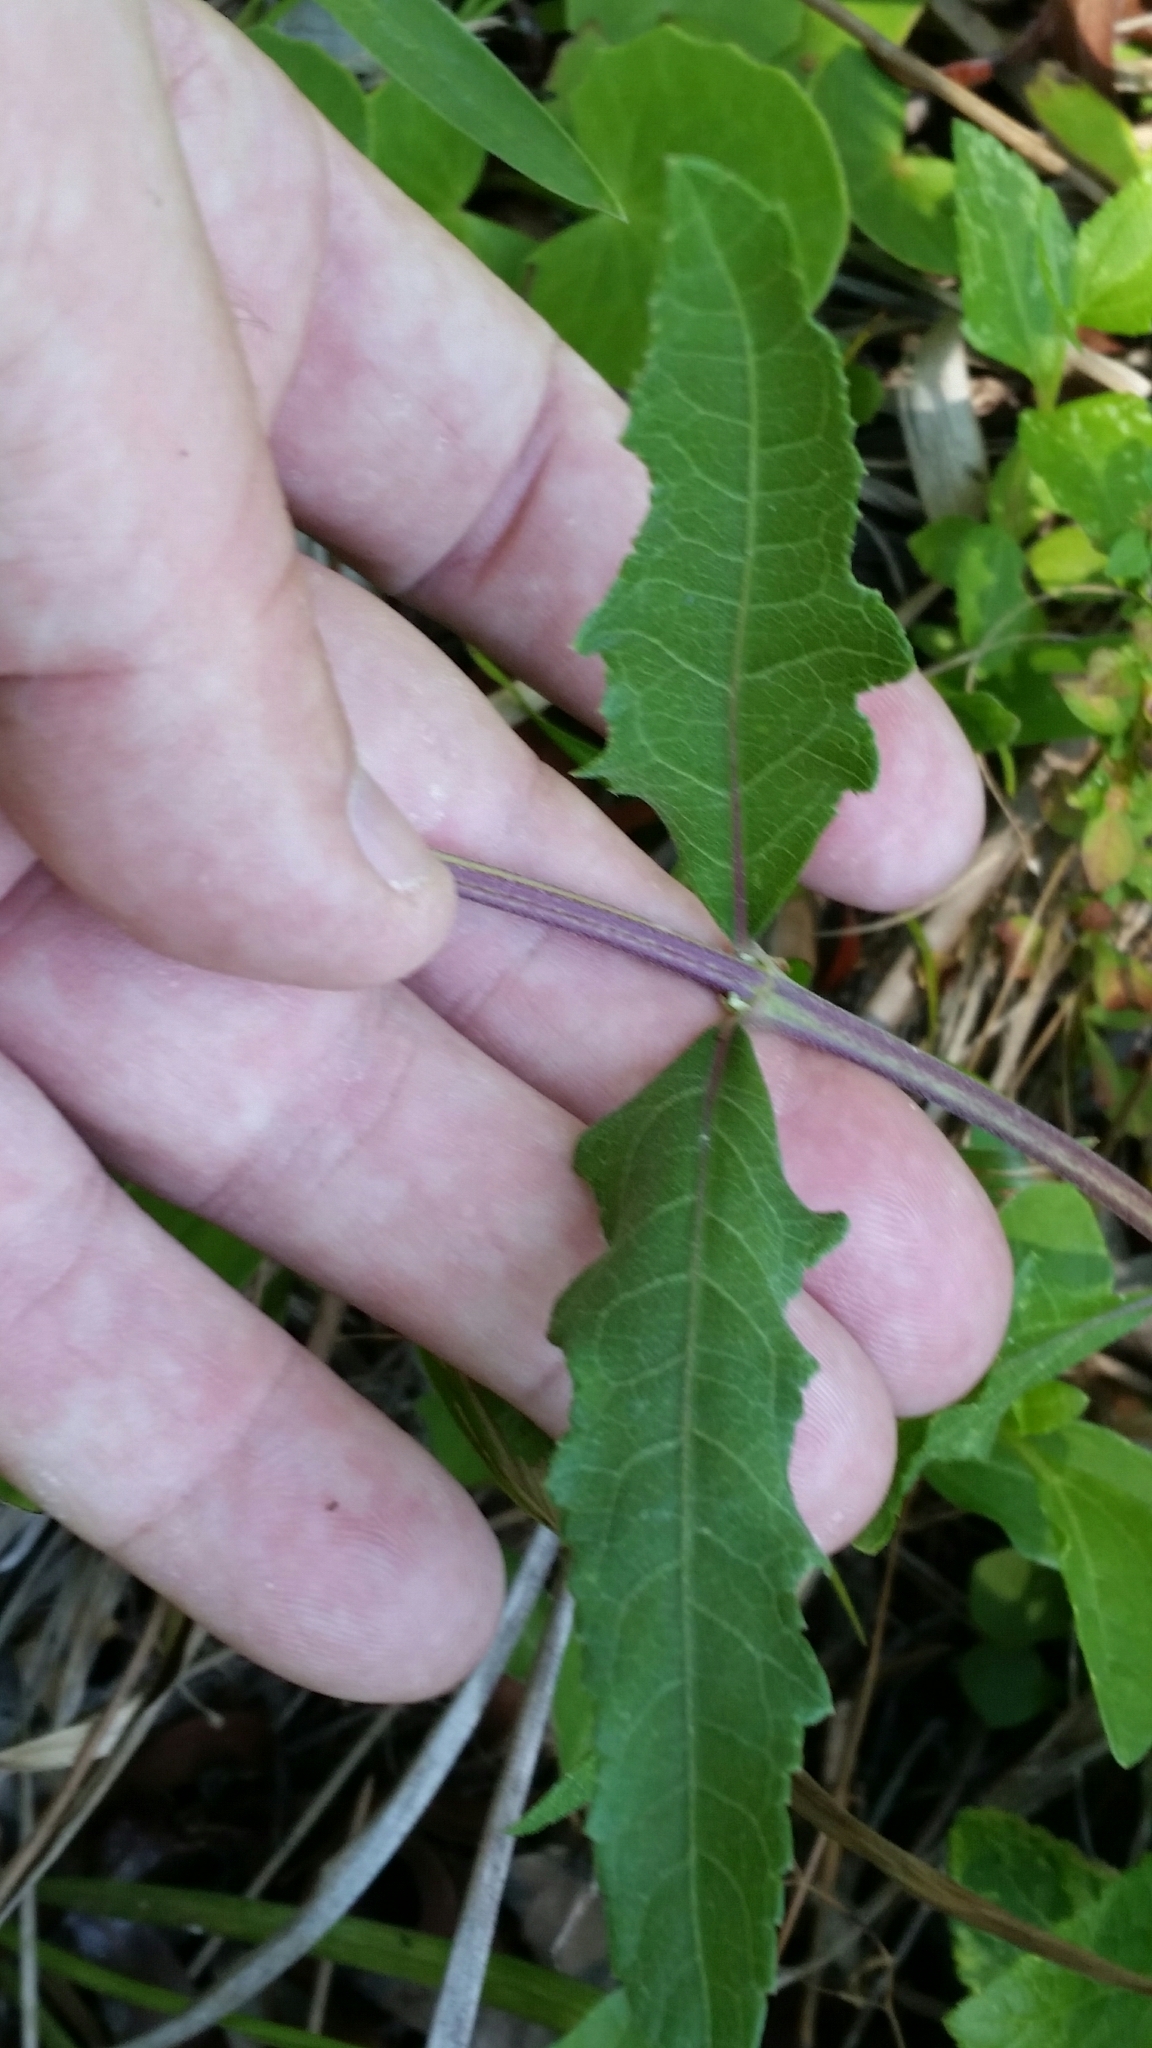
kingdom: Plantae
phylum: Tracheophyta
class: Magnoliopsida
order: Asterales
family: Asteraceae
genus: Melanthera
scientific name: Melanthera nivea
